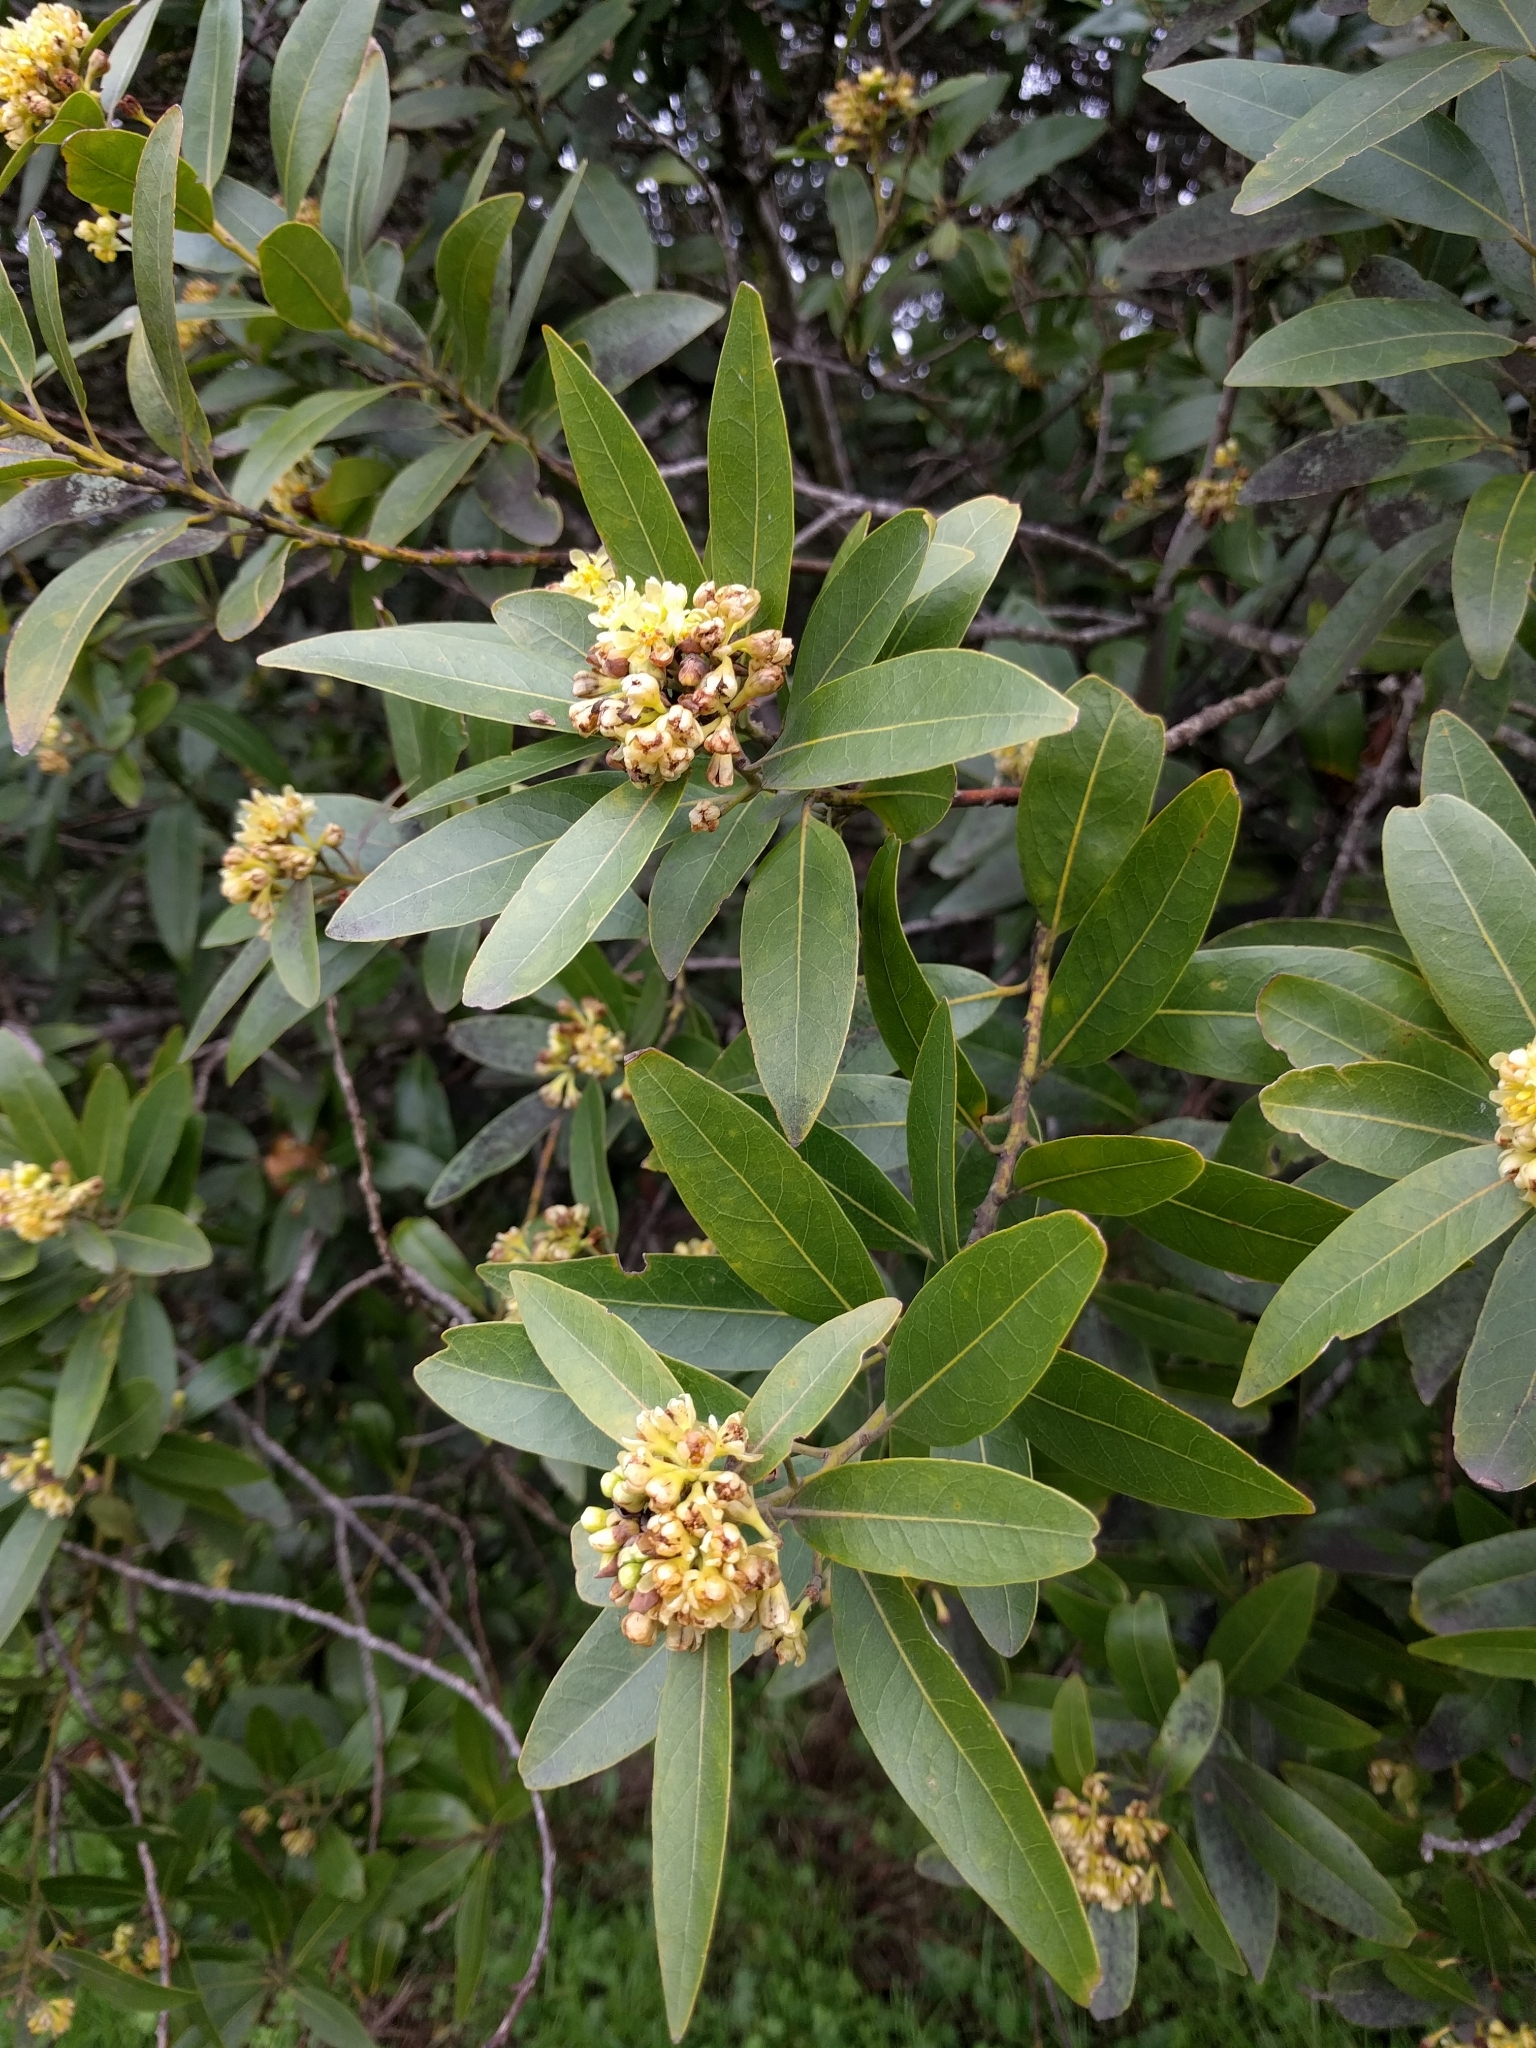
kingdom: Plantae
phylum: Tracheophyta
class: Magnoliopsida
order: Laurales
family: Lauraceae
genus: Umbellularia
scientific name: Umbellularia californica
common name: California bay
